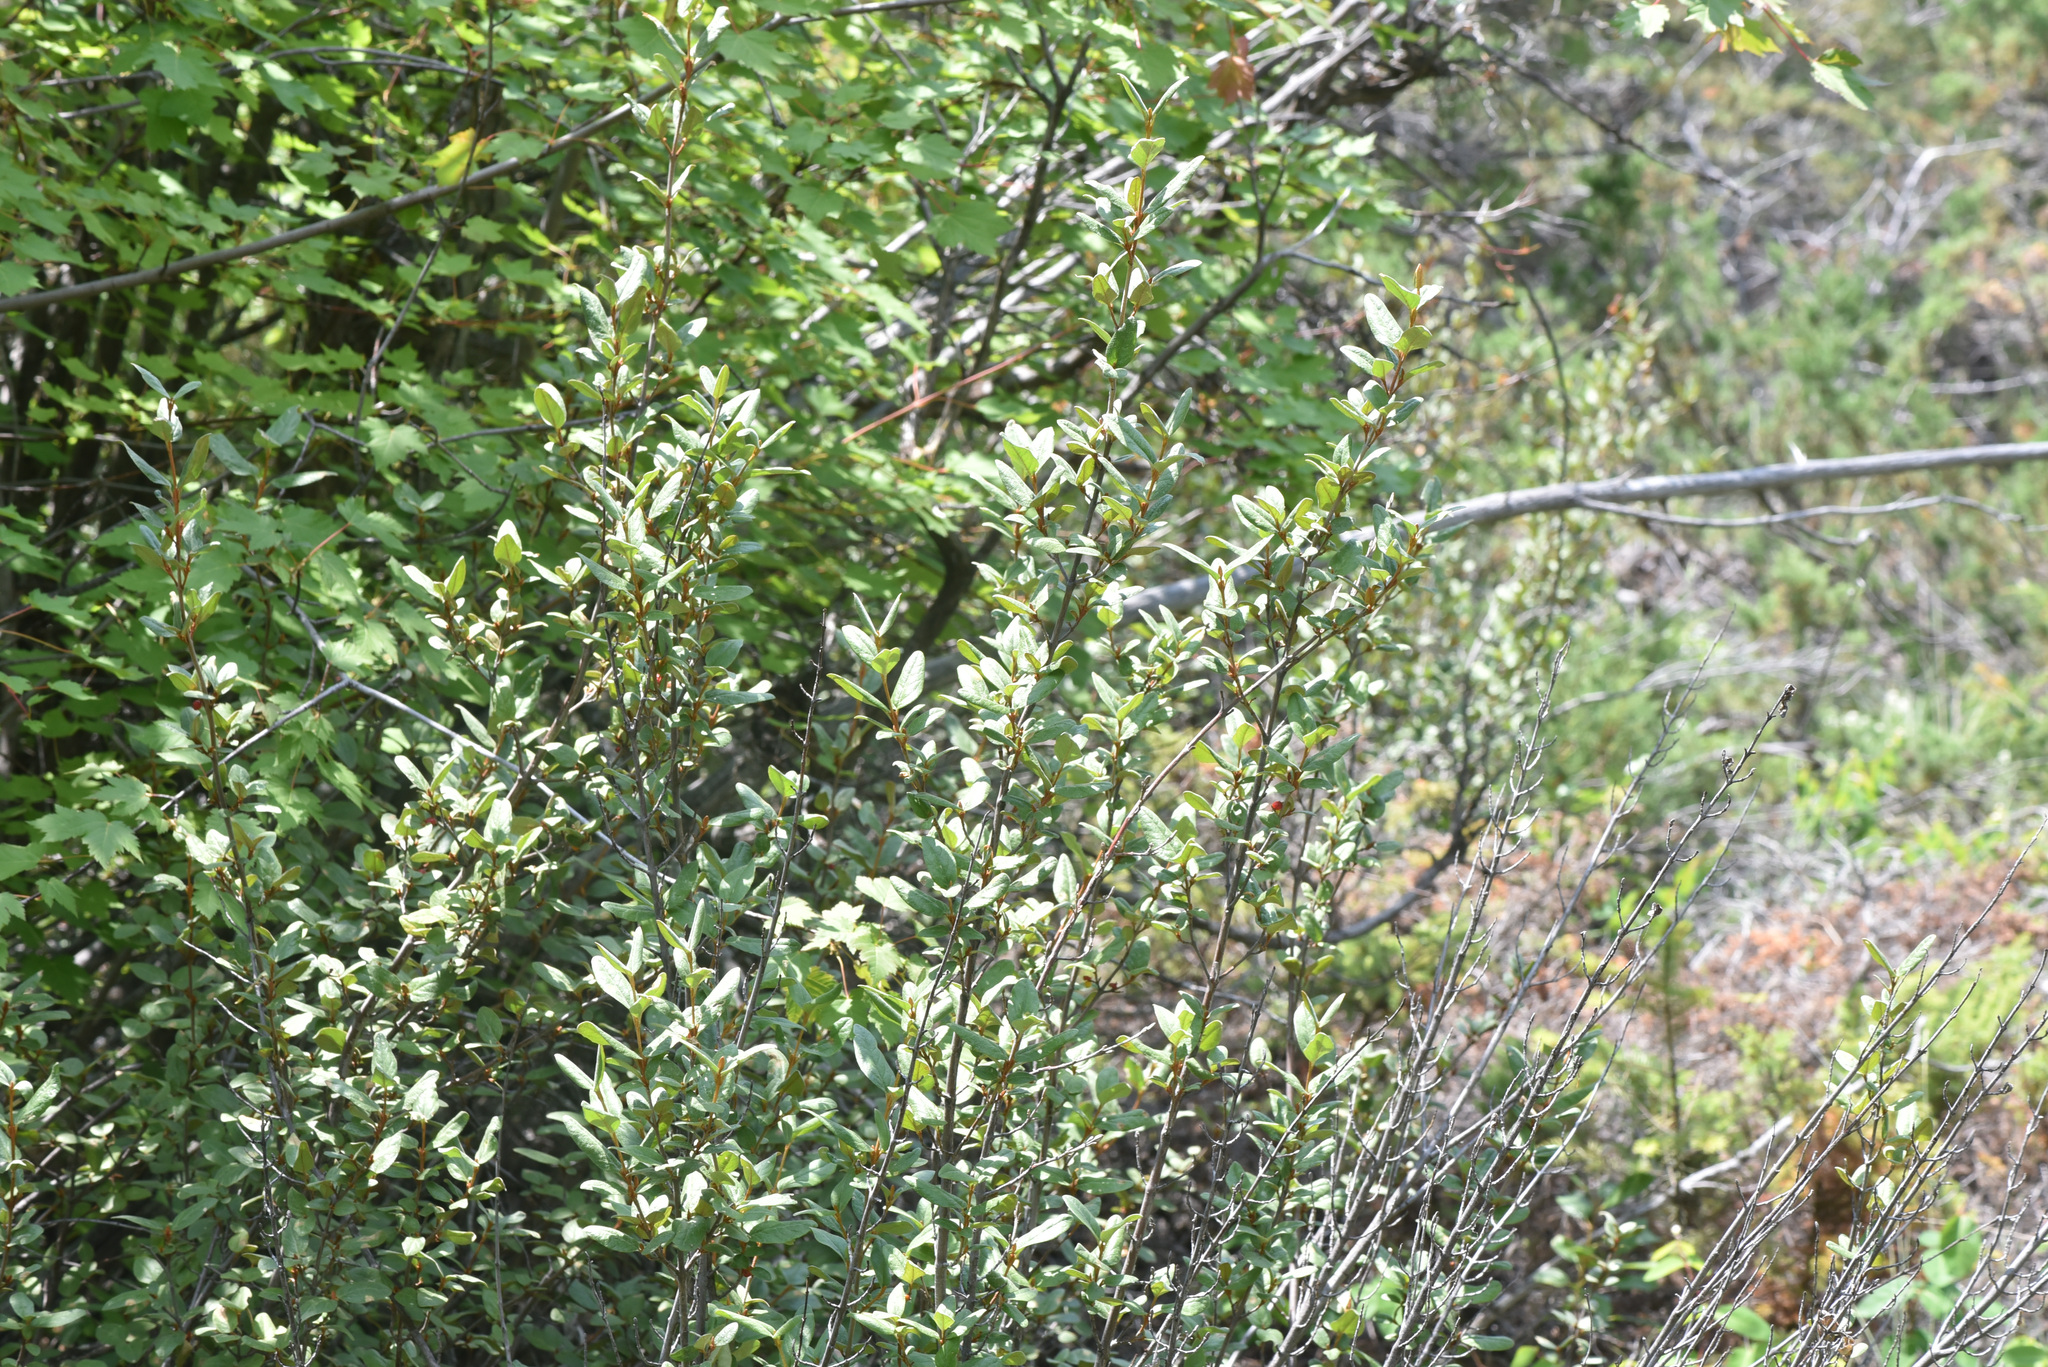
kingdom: Plantae
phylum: Tracheophyta
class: Magnoliopsida
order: Rosales
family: Elaeagnaceae
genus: Shepherdia
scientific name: Shepherdia canadensis
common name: Soapberry
